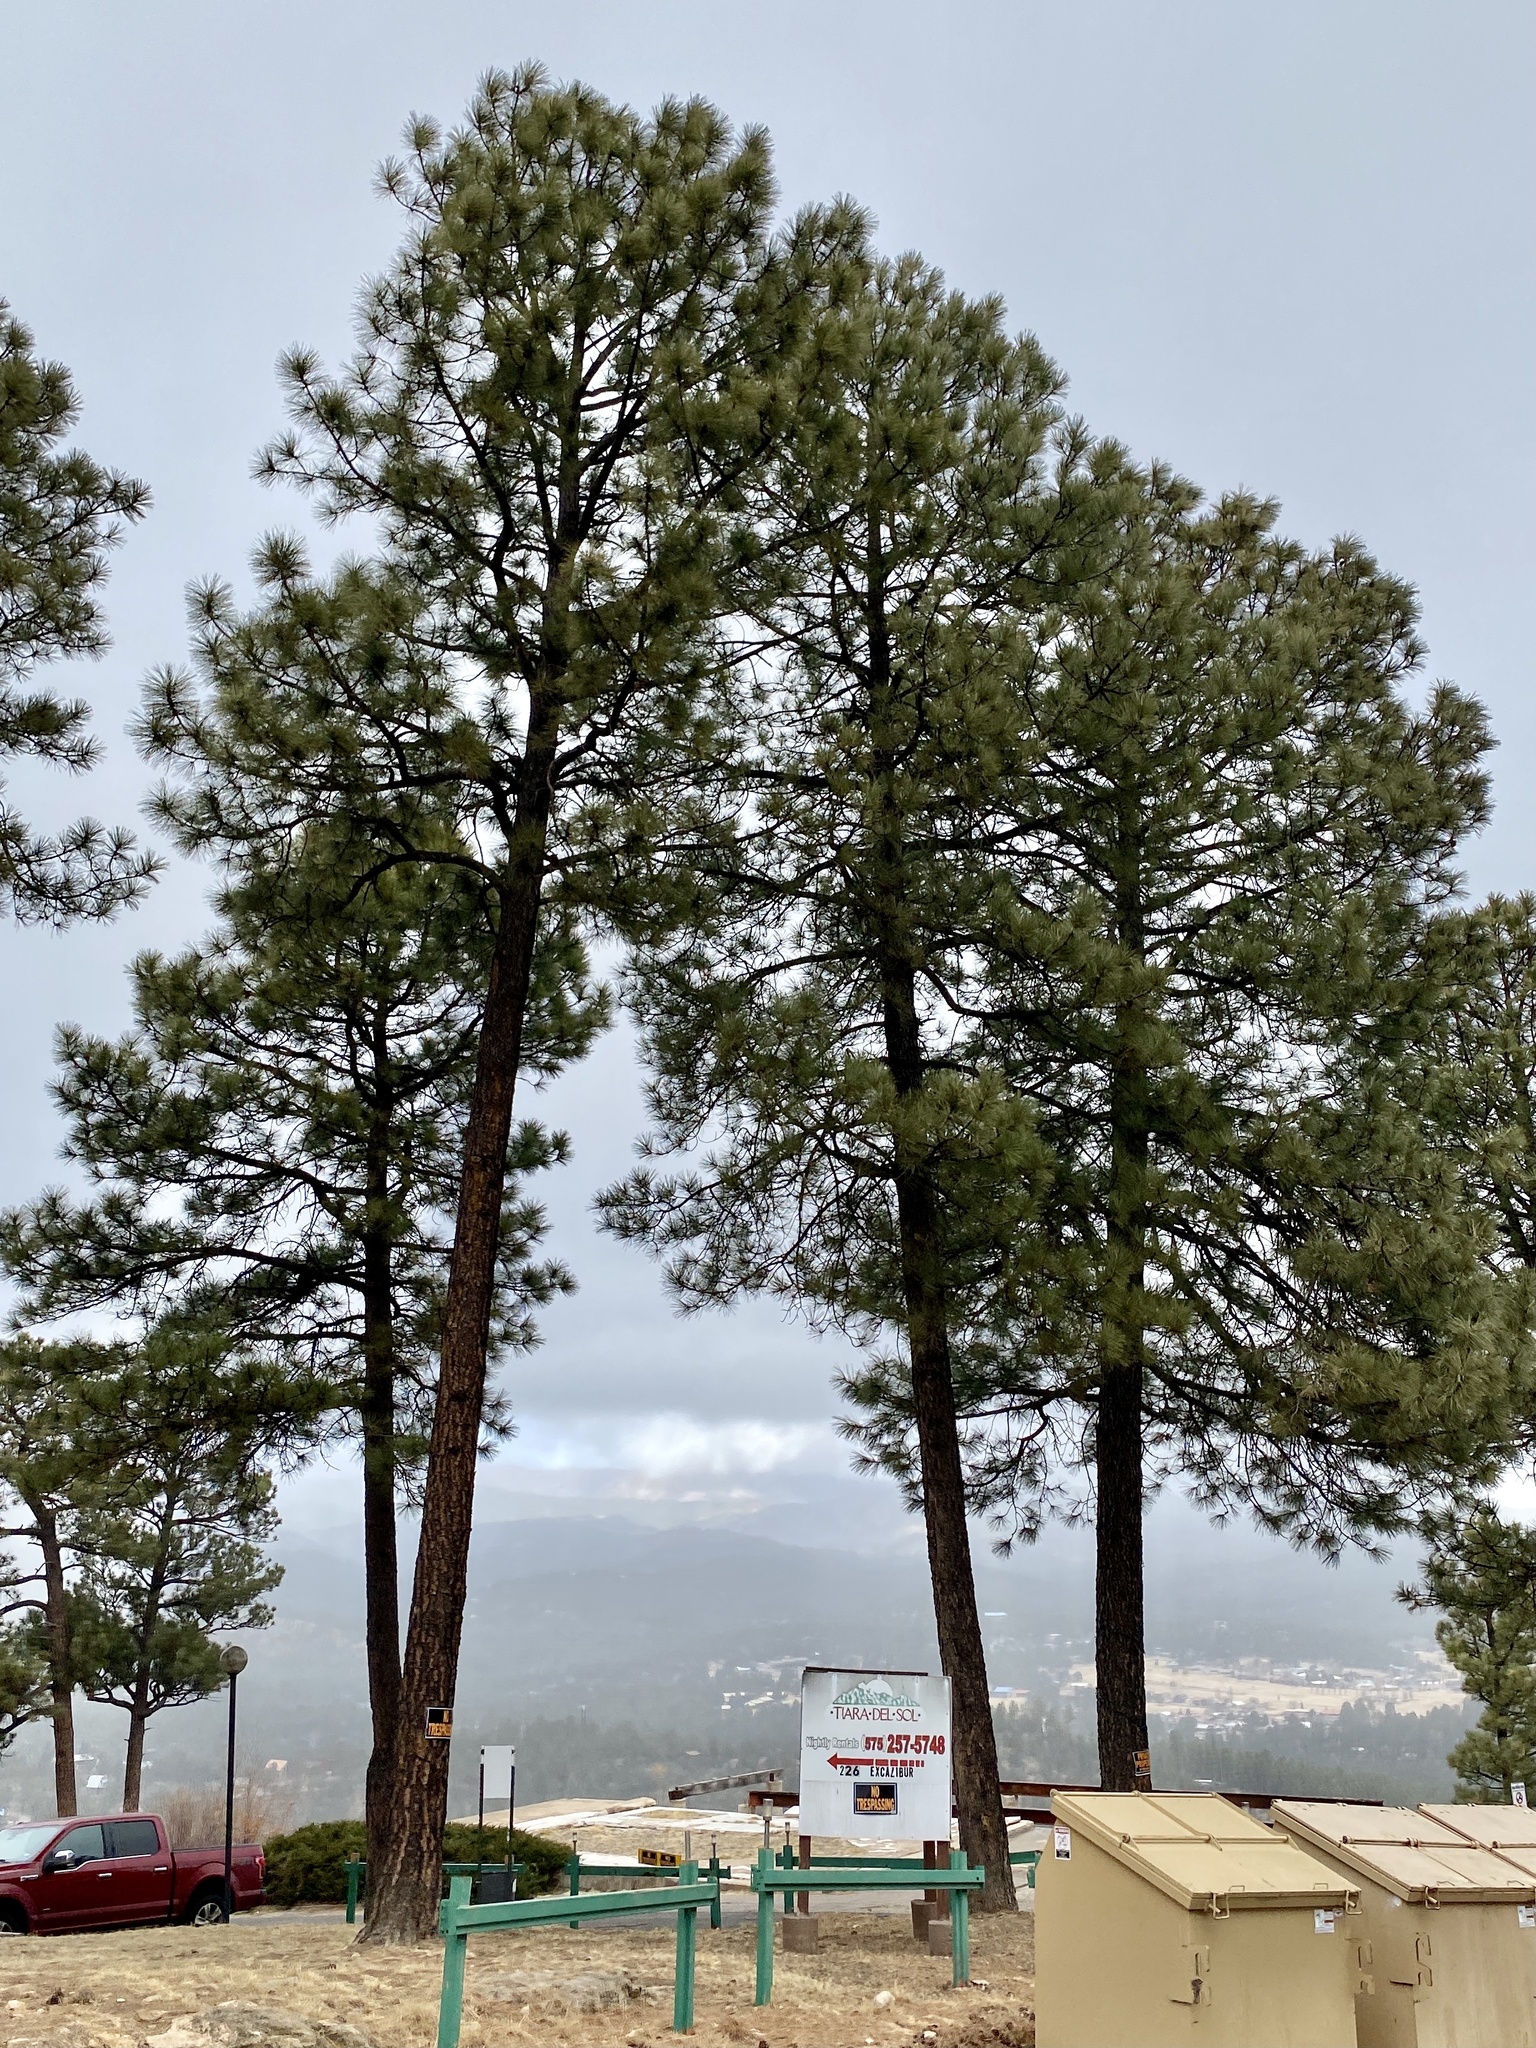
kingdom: Plantae
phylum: Tracheophyta
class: Pinopsida
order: Pinales
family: Pinaceae
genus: Pinus
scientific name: Pinus ponderosa
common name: Western yellow-pine
